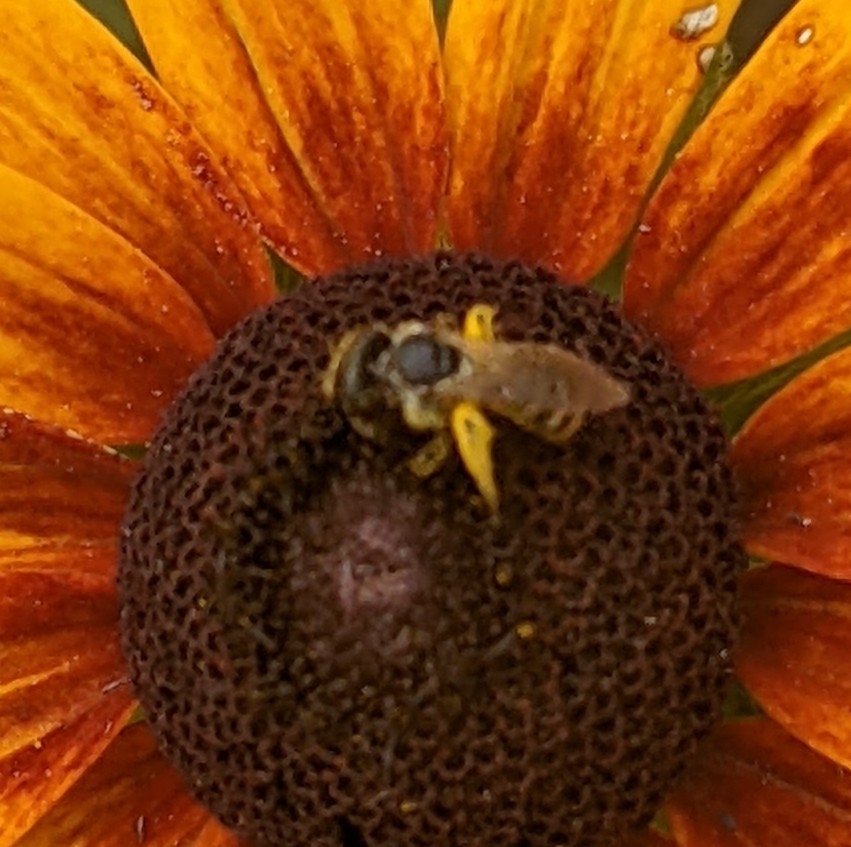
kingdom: Animalia
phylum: Arthropoda
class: Insecta
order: Hymenoptera
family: Halictidae
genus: Halictus
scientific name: Halictus ligatus
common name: Ligated furrow bee
